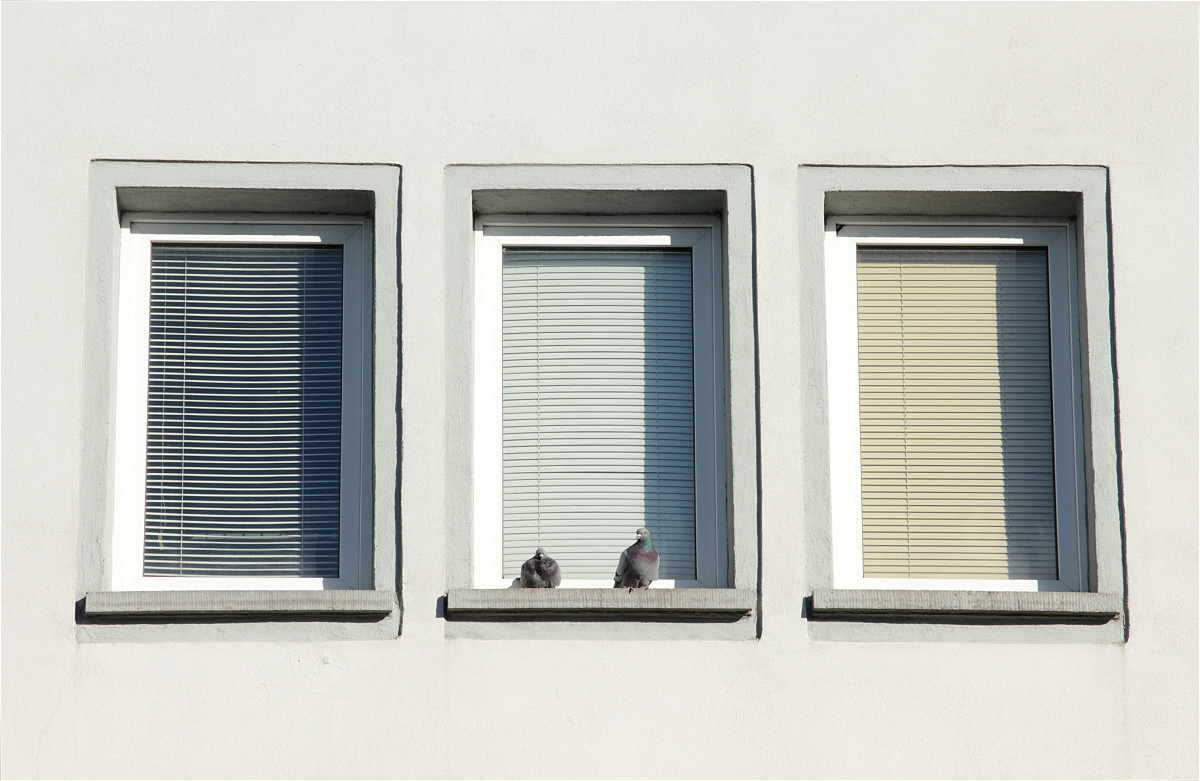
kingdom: Animalia
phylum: Chordata
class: Aves
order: Columbiformes
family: Columbidae
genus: Columba
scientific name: Columba livia
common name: Rock pigeon
